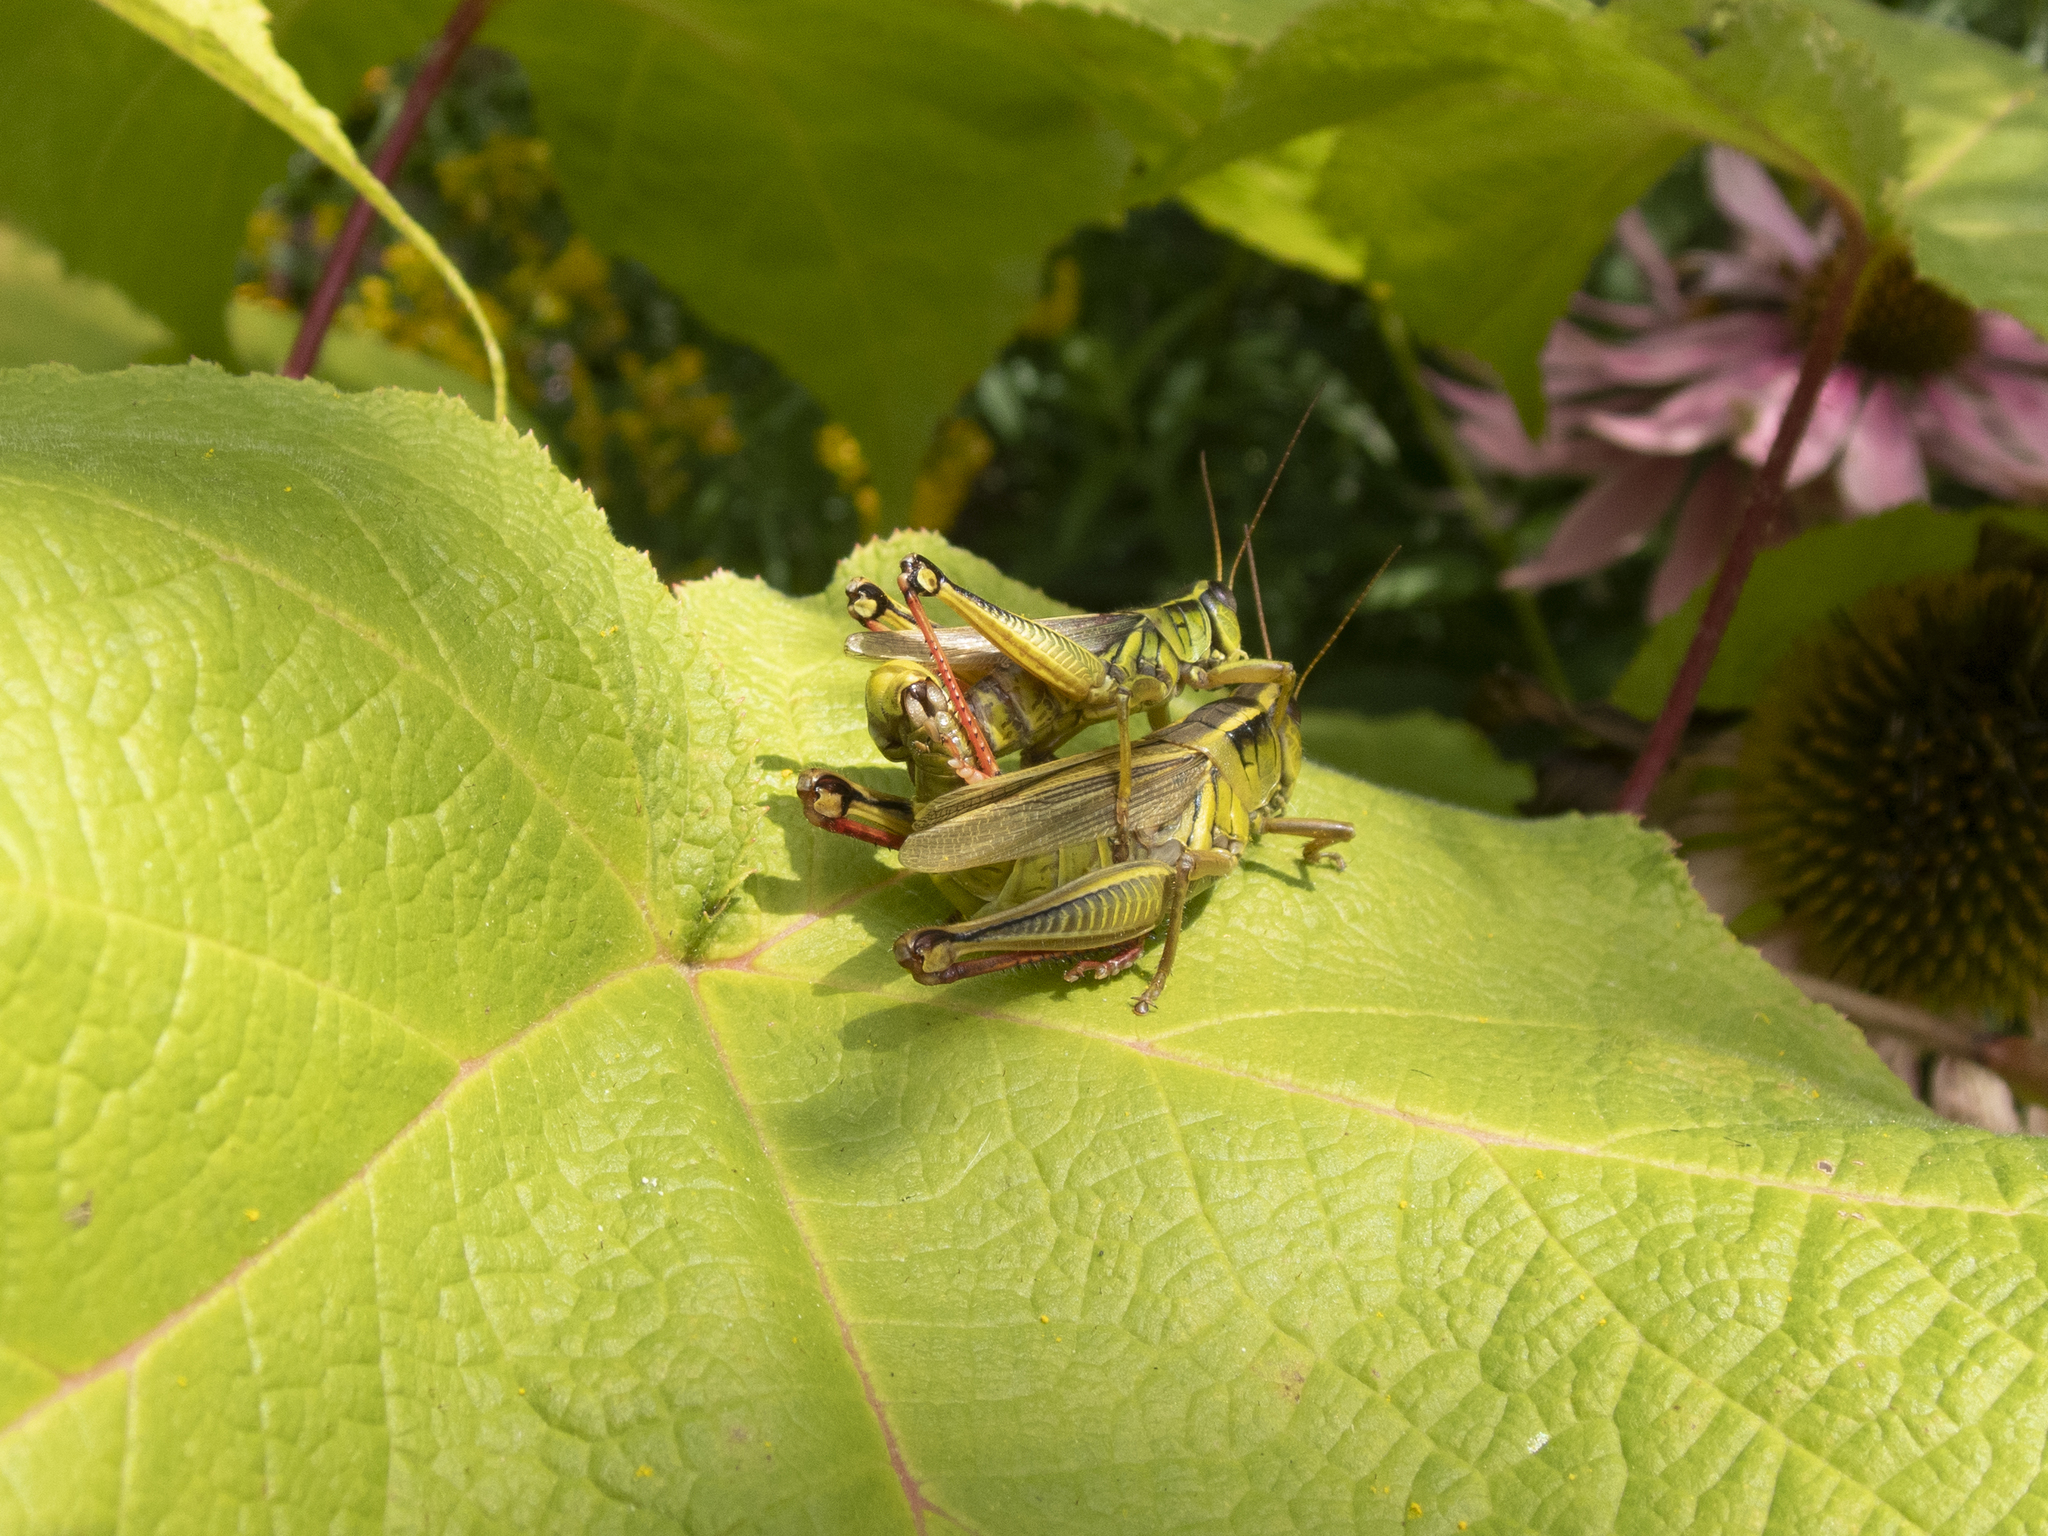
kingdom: Animalia
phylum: Arthropoda
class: Insecta
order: Orthoptera
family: Acrididae
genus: Melanoplus
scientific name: Melanoplus bivittatus
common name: Two-striped grasshopper
